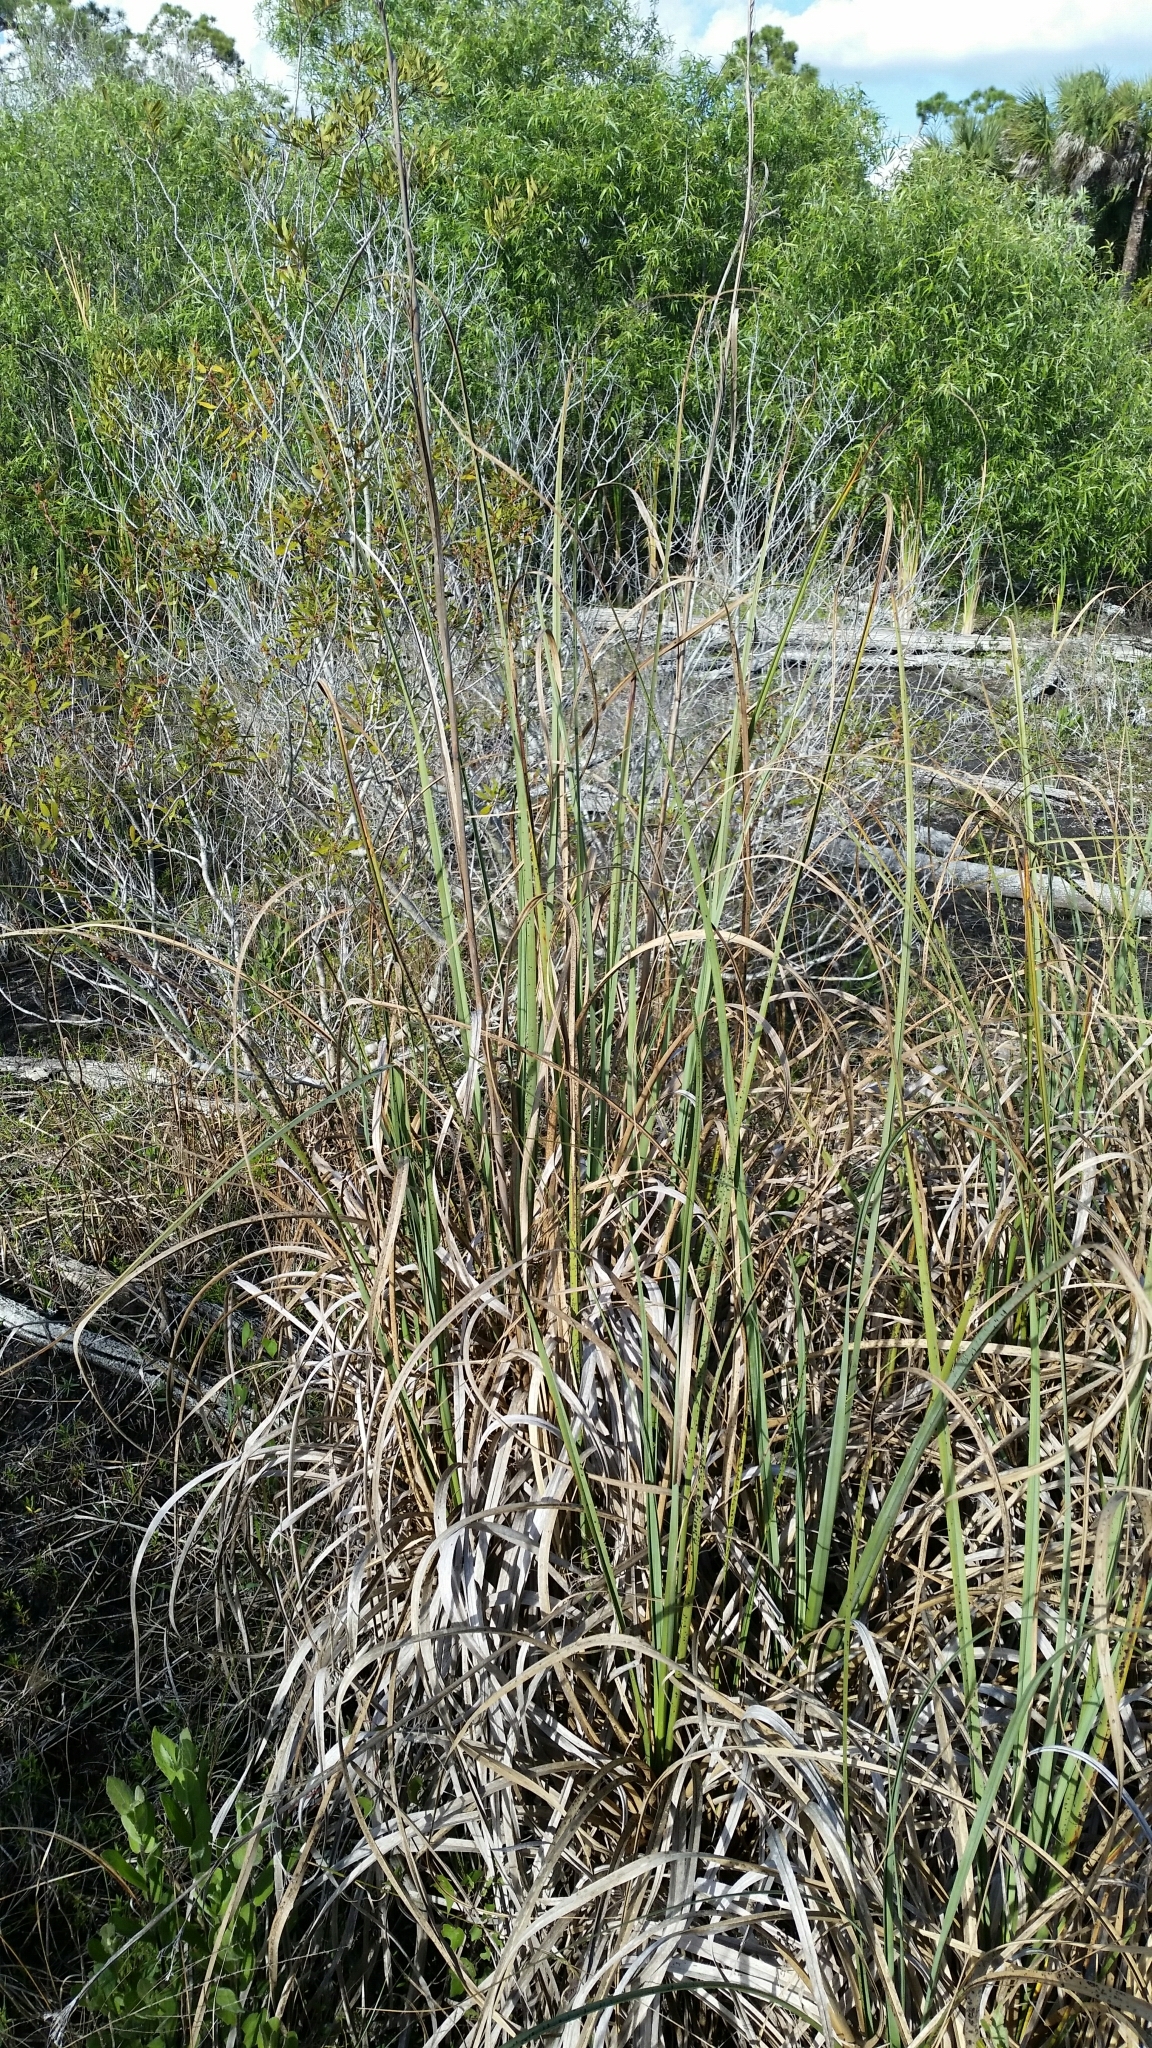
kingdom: Plantae
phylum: Tracheophyta
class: Liliopsida
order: Poales
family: Cyperaceae
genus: Cladium
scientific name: Cladium mariscus
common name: Great fen-sedge
